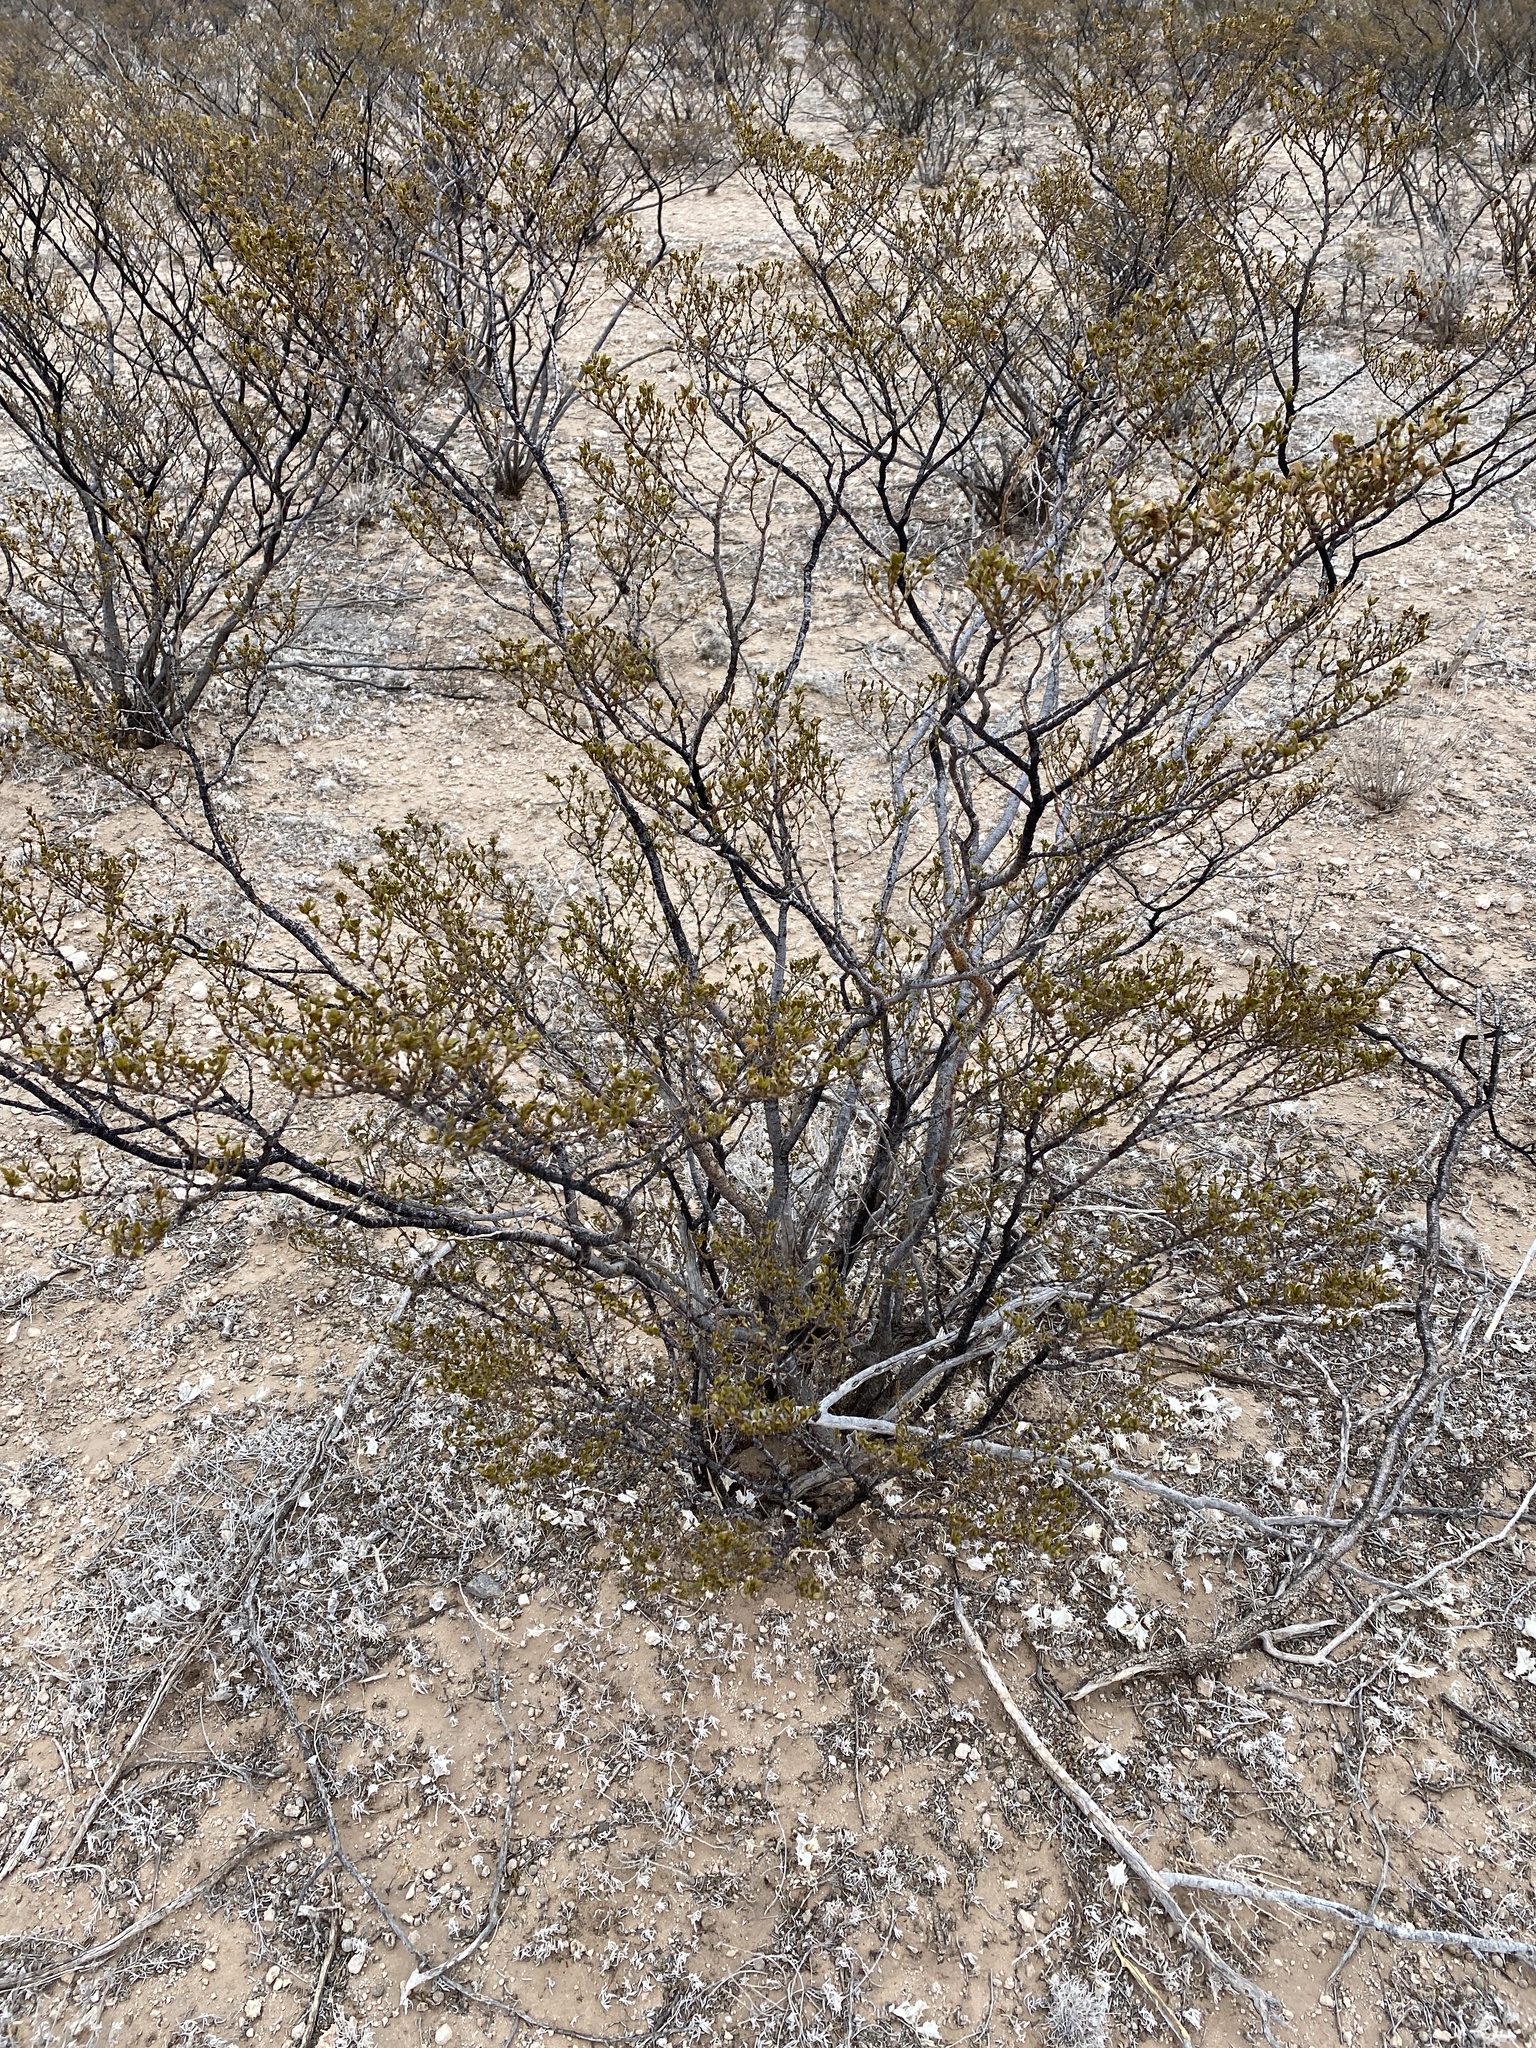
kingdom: Plantae
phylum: Tracheophyta
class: Magnoliopsida
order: Zygophyllales
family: Zygophyllaceae
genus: Larrea
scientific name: Larrea tridentata
